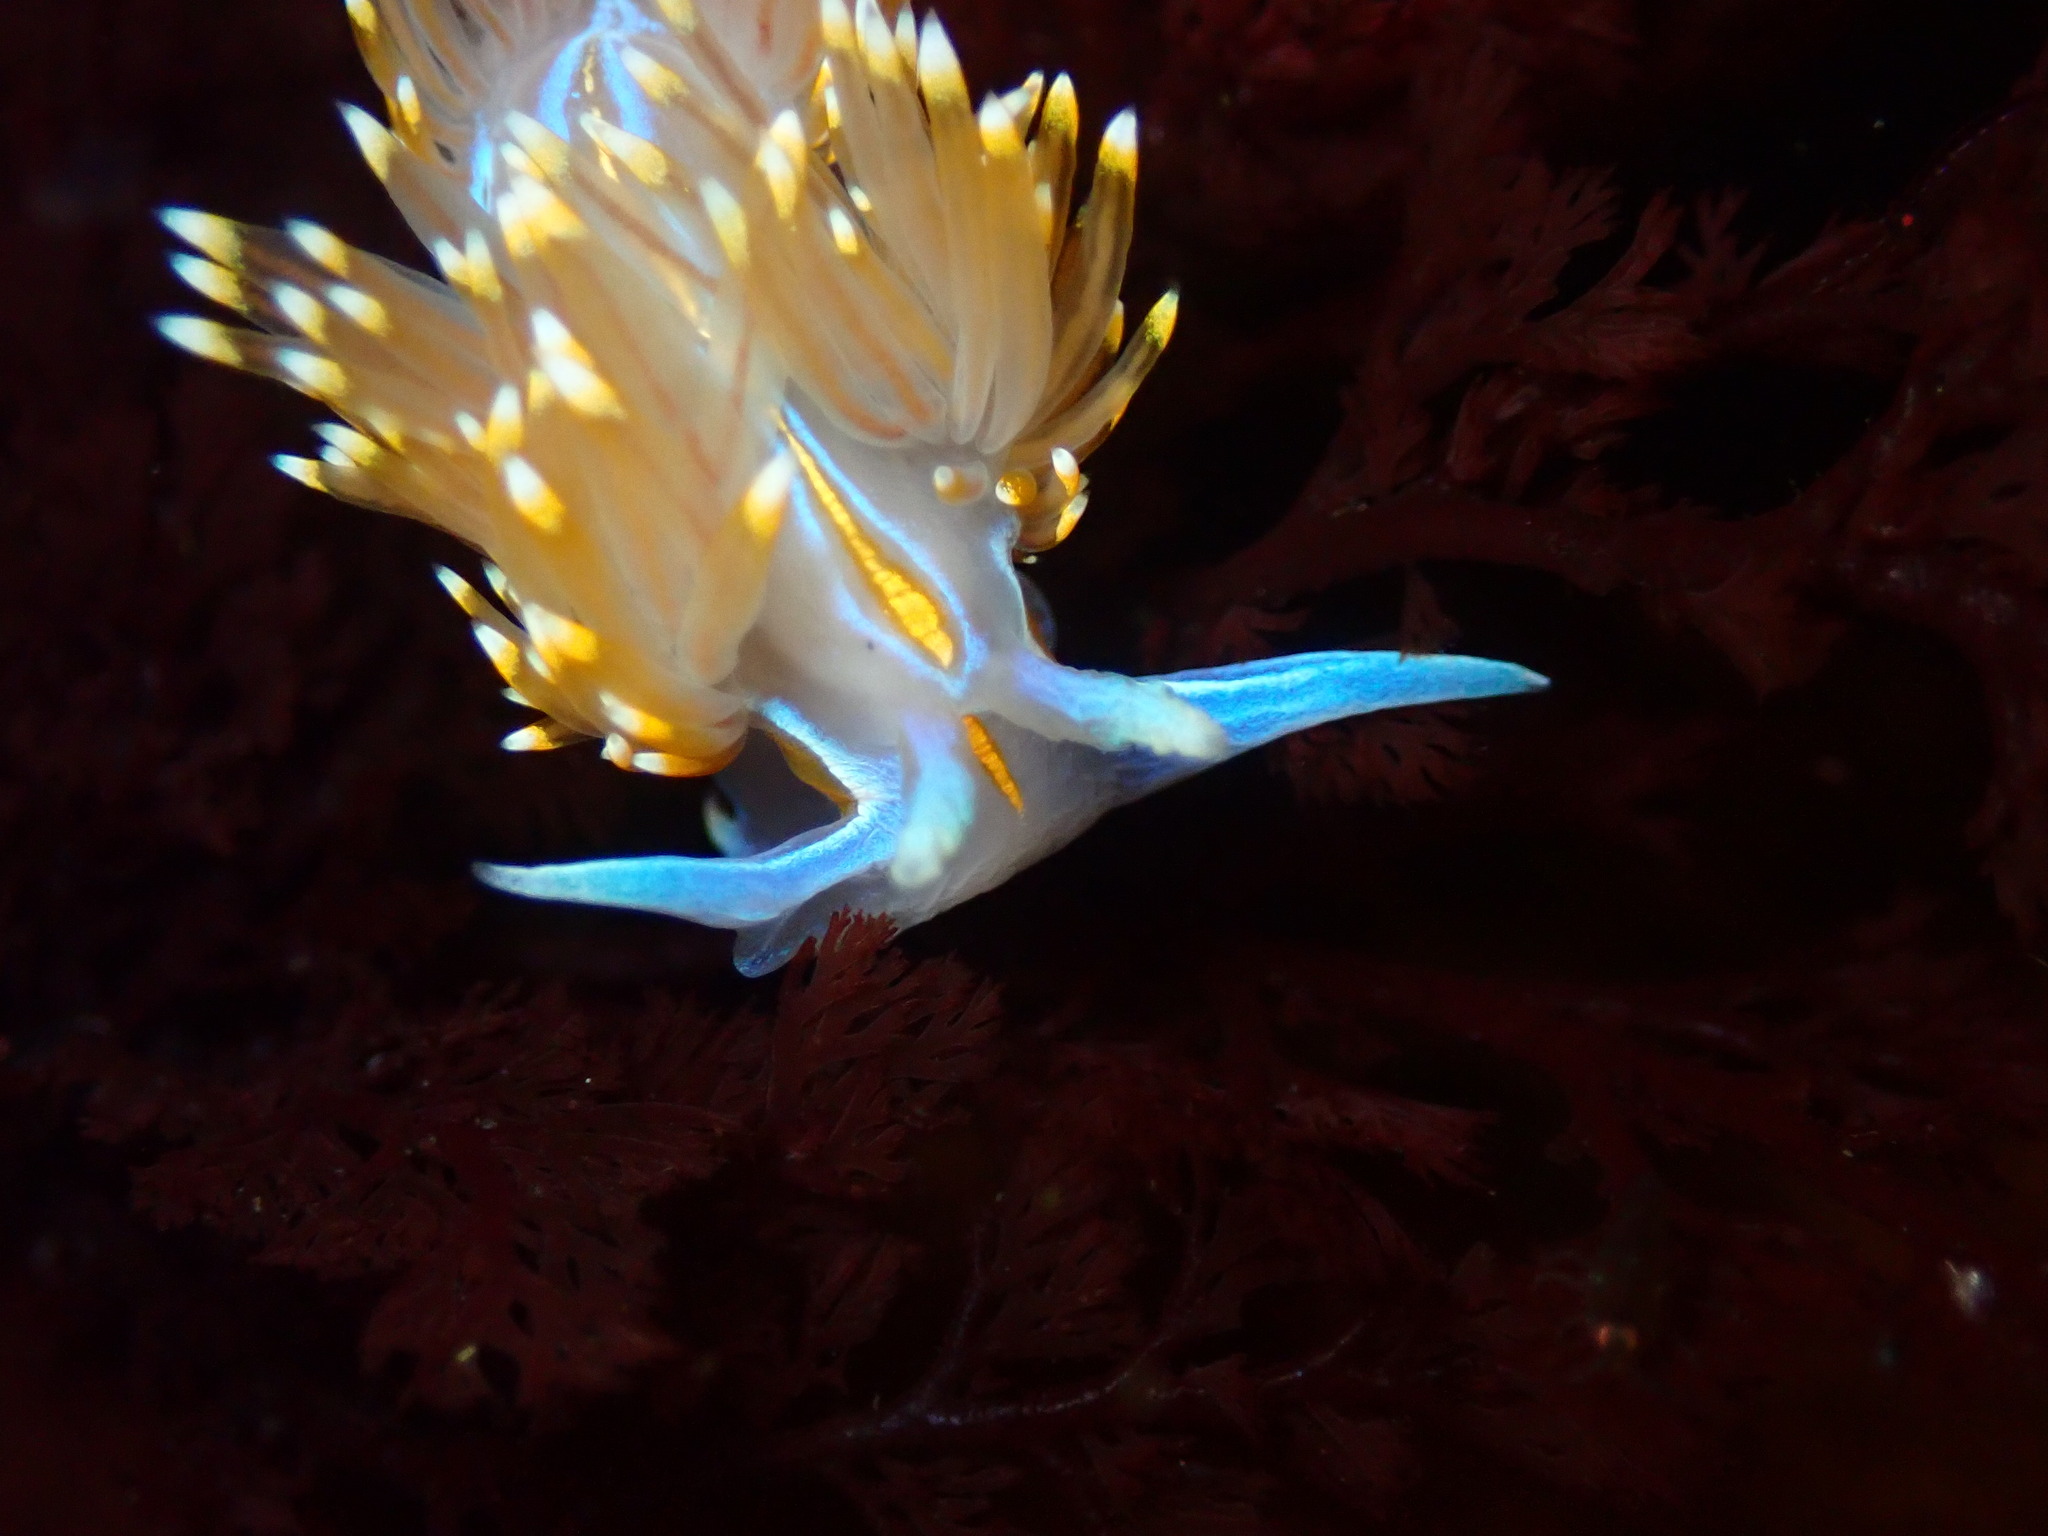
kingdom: Animalia
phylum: Mollusca
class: Gastropoda
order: Nudibranchia
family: Myrrhinidae
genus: Hermissenda
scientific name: Hermissenda opalescens
